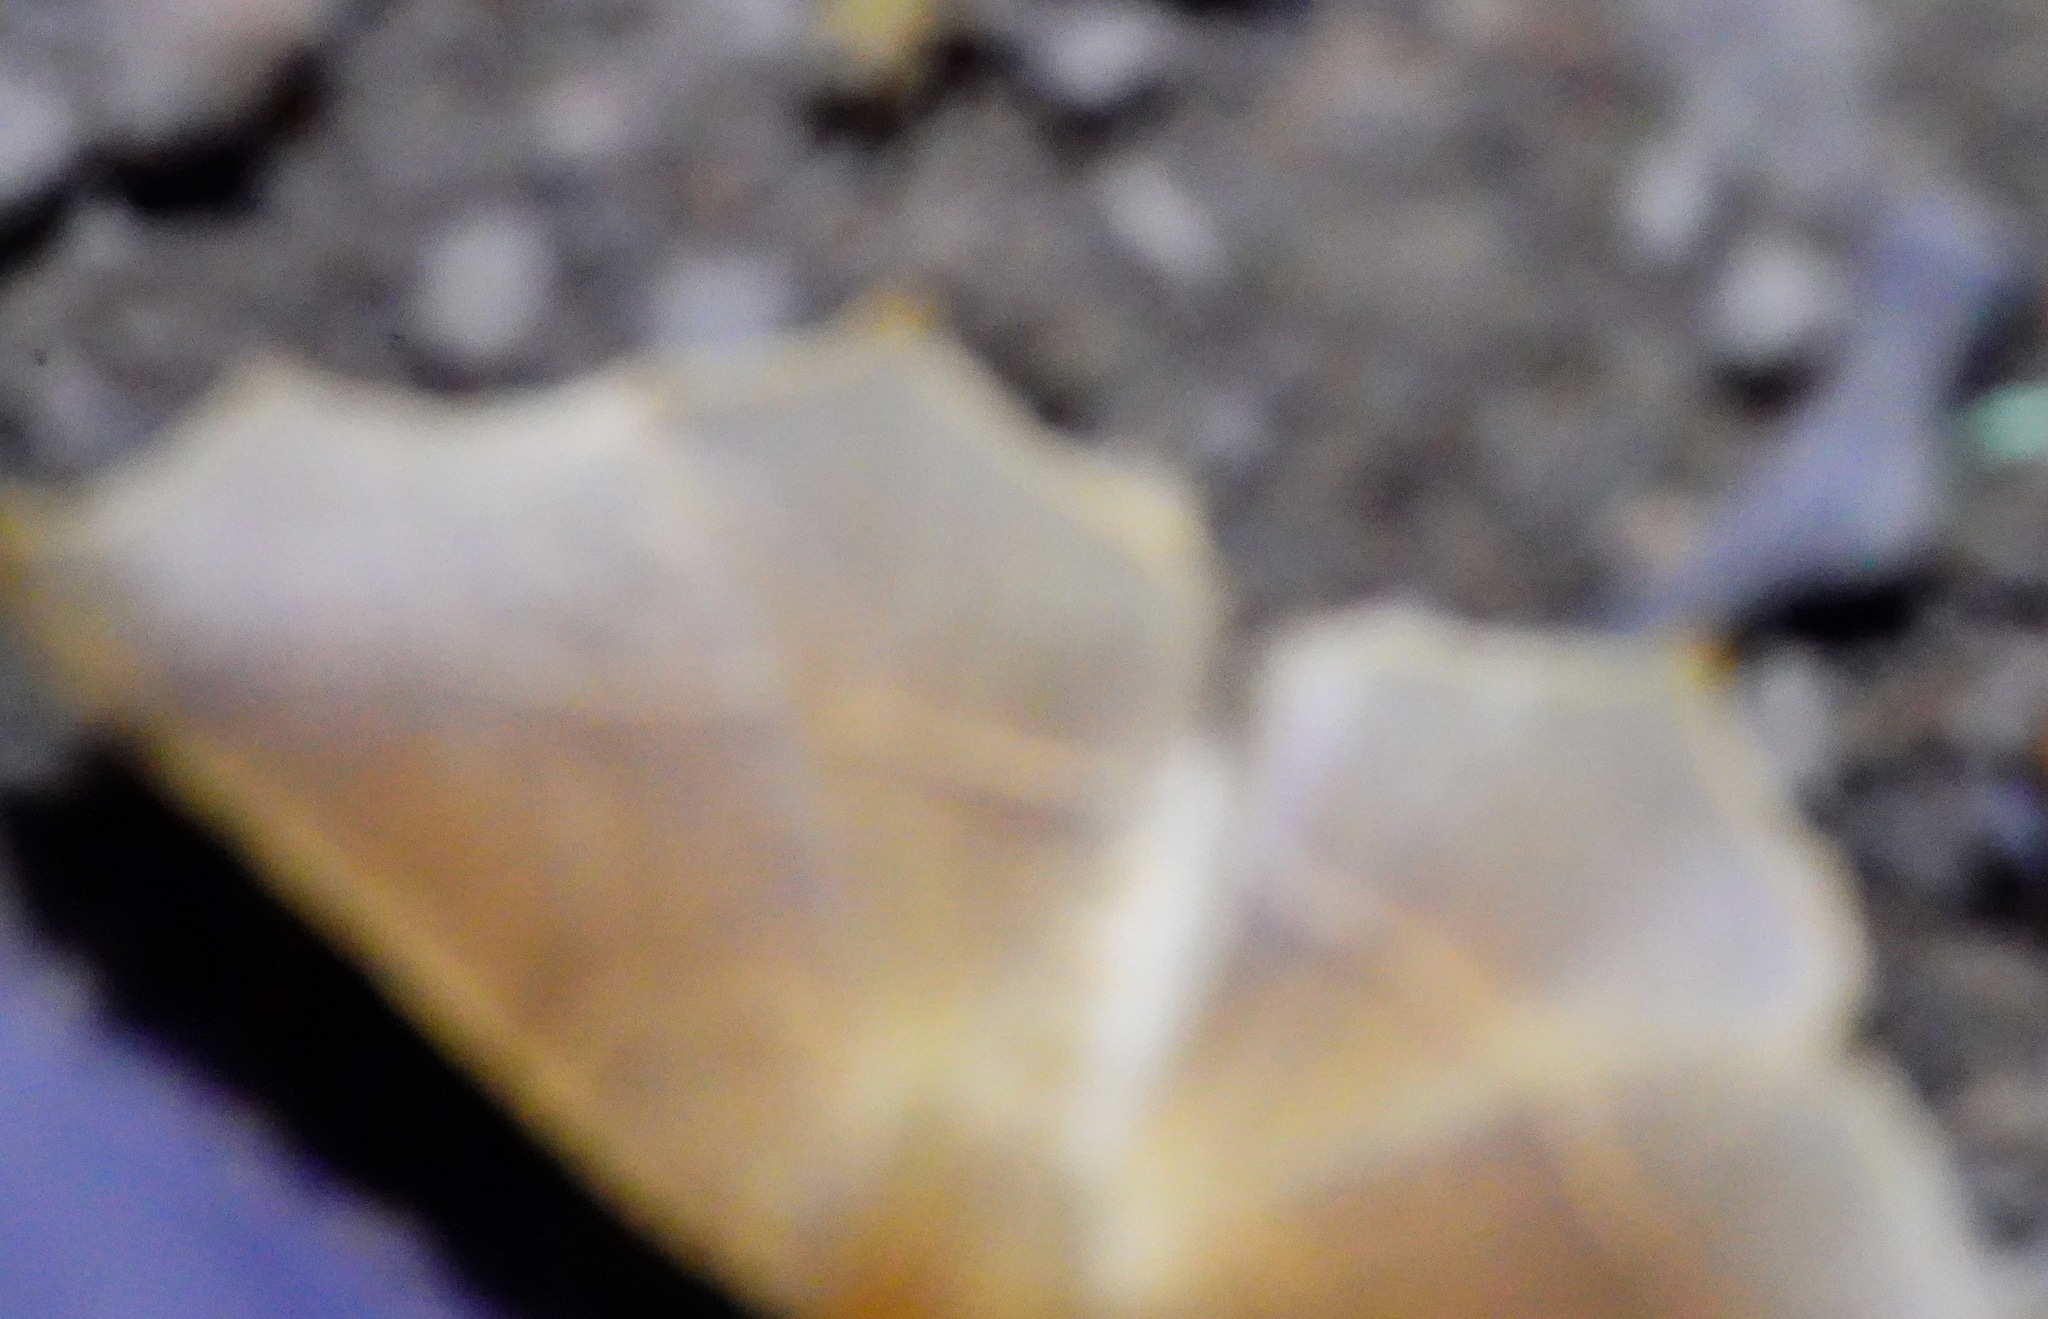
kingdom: Animalia
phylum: Arthropoda
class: Insecta
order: Lepidoptera
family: Geometridae
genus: Tetracis
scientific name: Tetracis cervinaria
